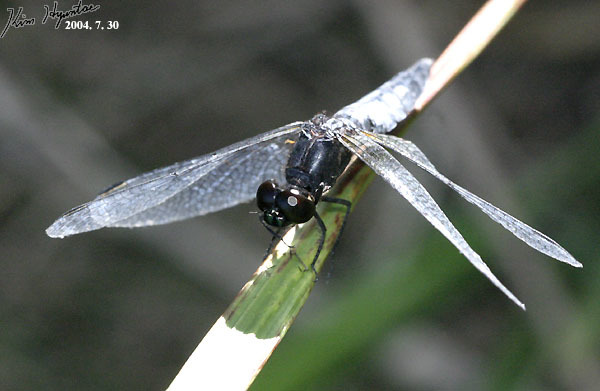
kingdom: Animalia
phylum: Arthropoda
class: Insecta
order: Odonata
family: Libellulidae
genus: Lyriothemis
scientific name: Lyriothemis pachygastra
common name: Wide-bellied skimmer
